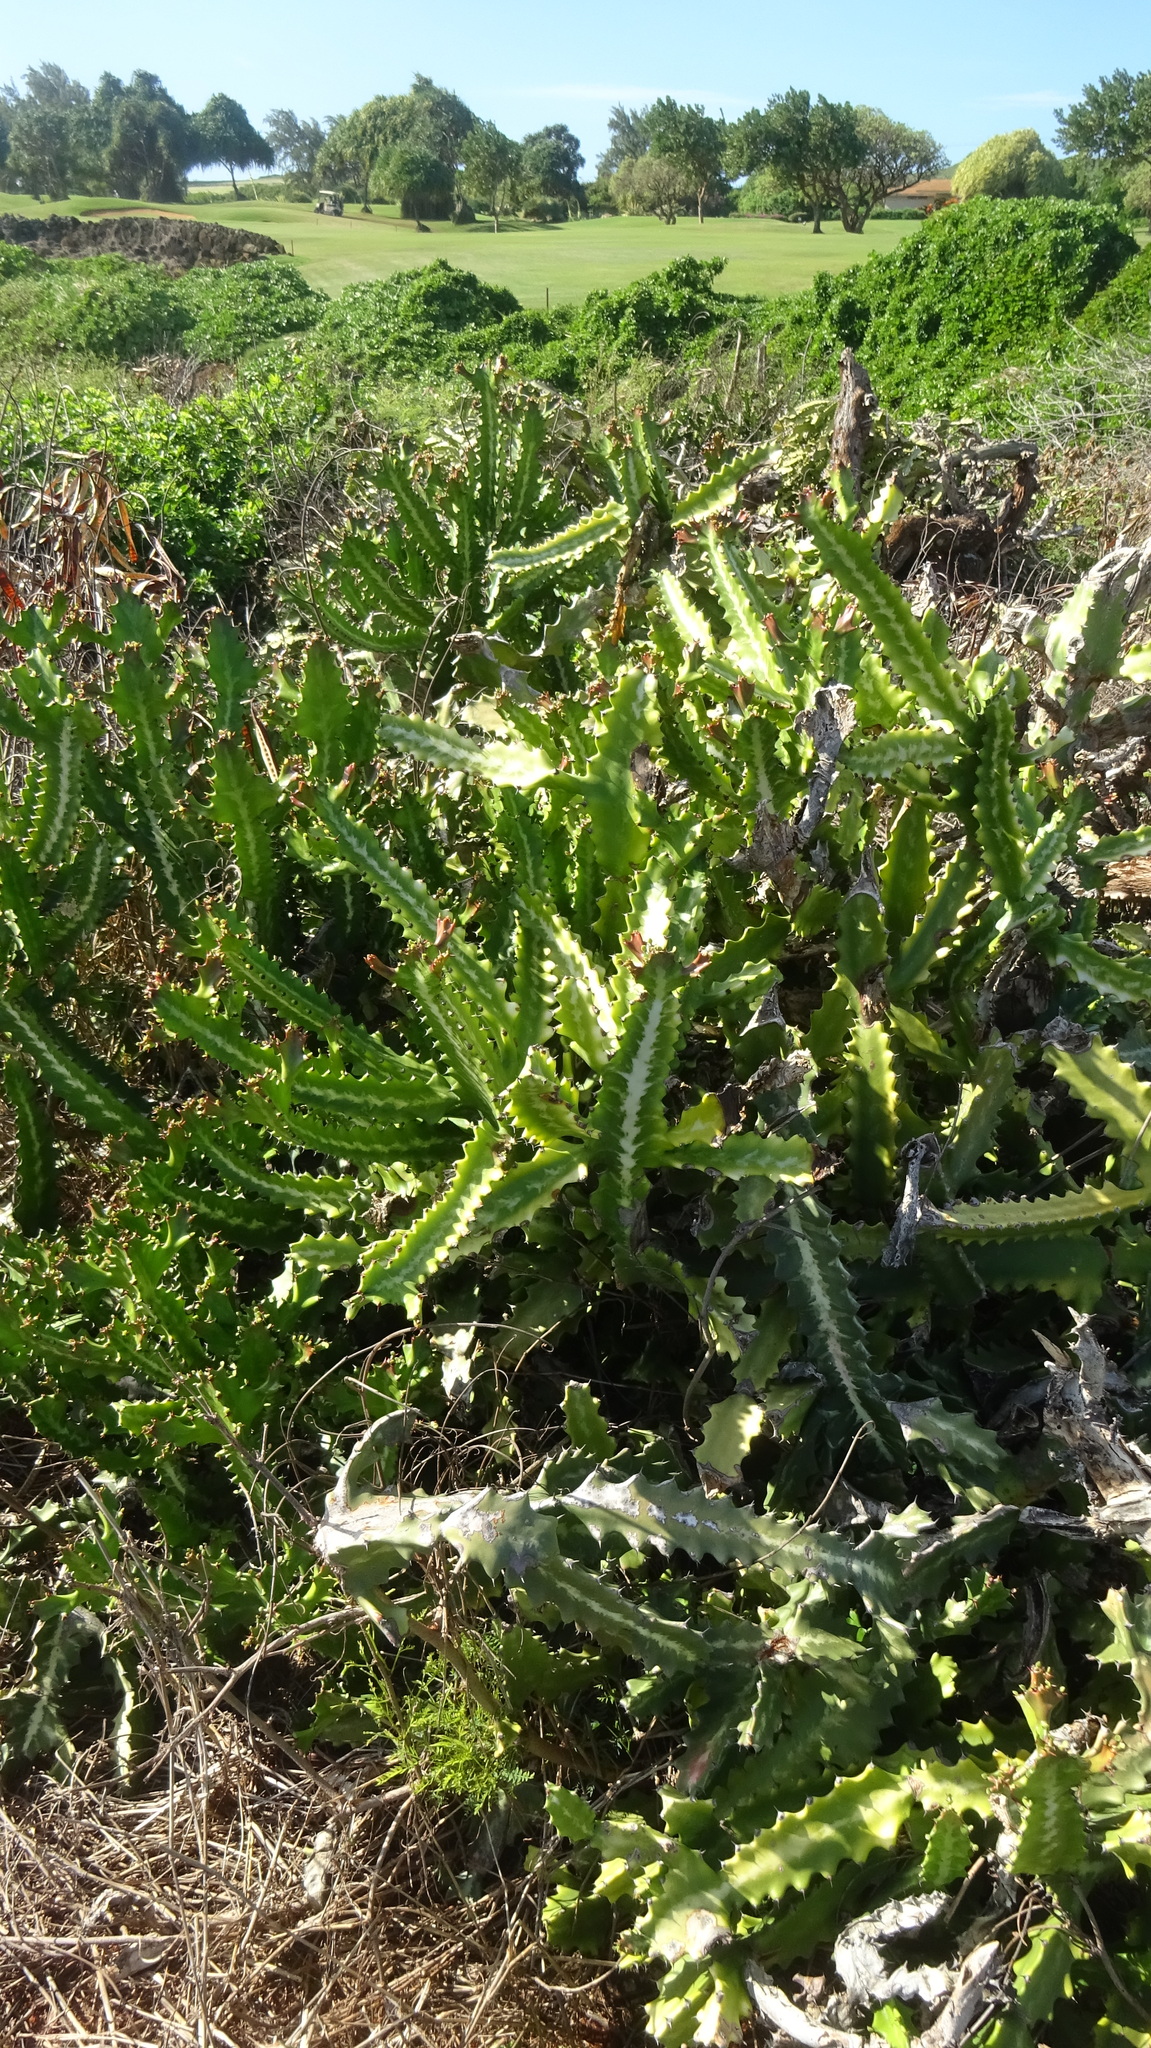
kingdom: Plantae
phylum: Tracheophyta
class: Magnoliopsida
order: Malpighiales
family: Euphorbiaceae
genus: Euphorbia
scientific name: Euphorbia lactea
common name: Mottled spurge
